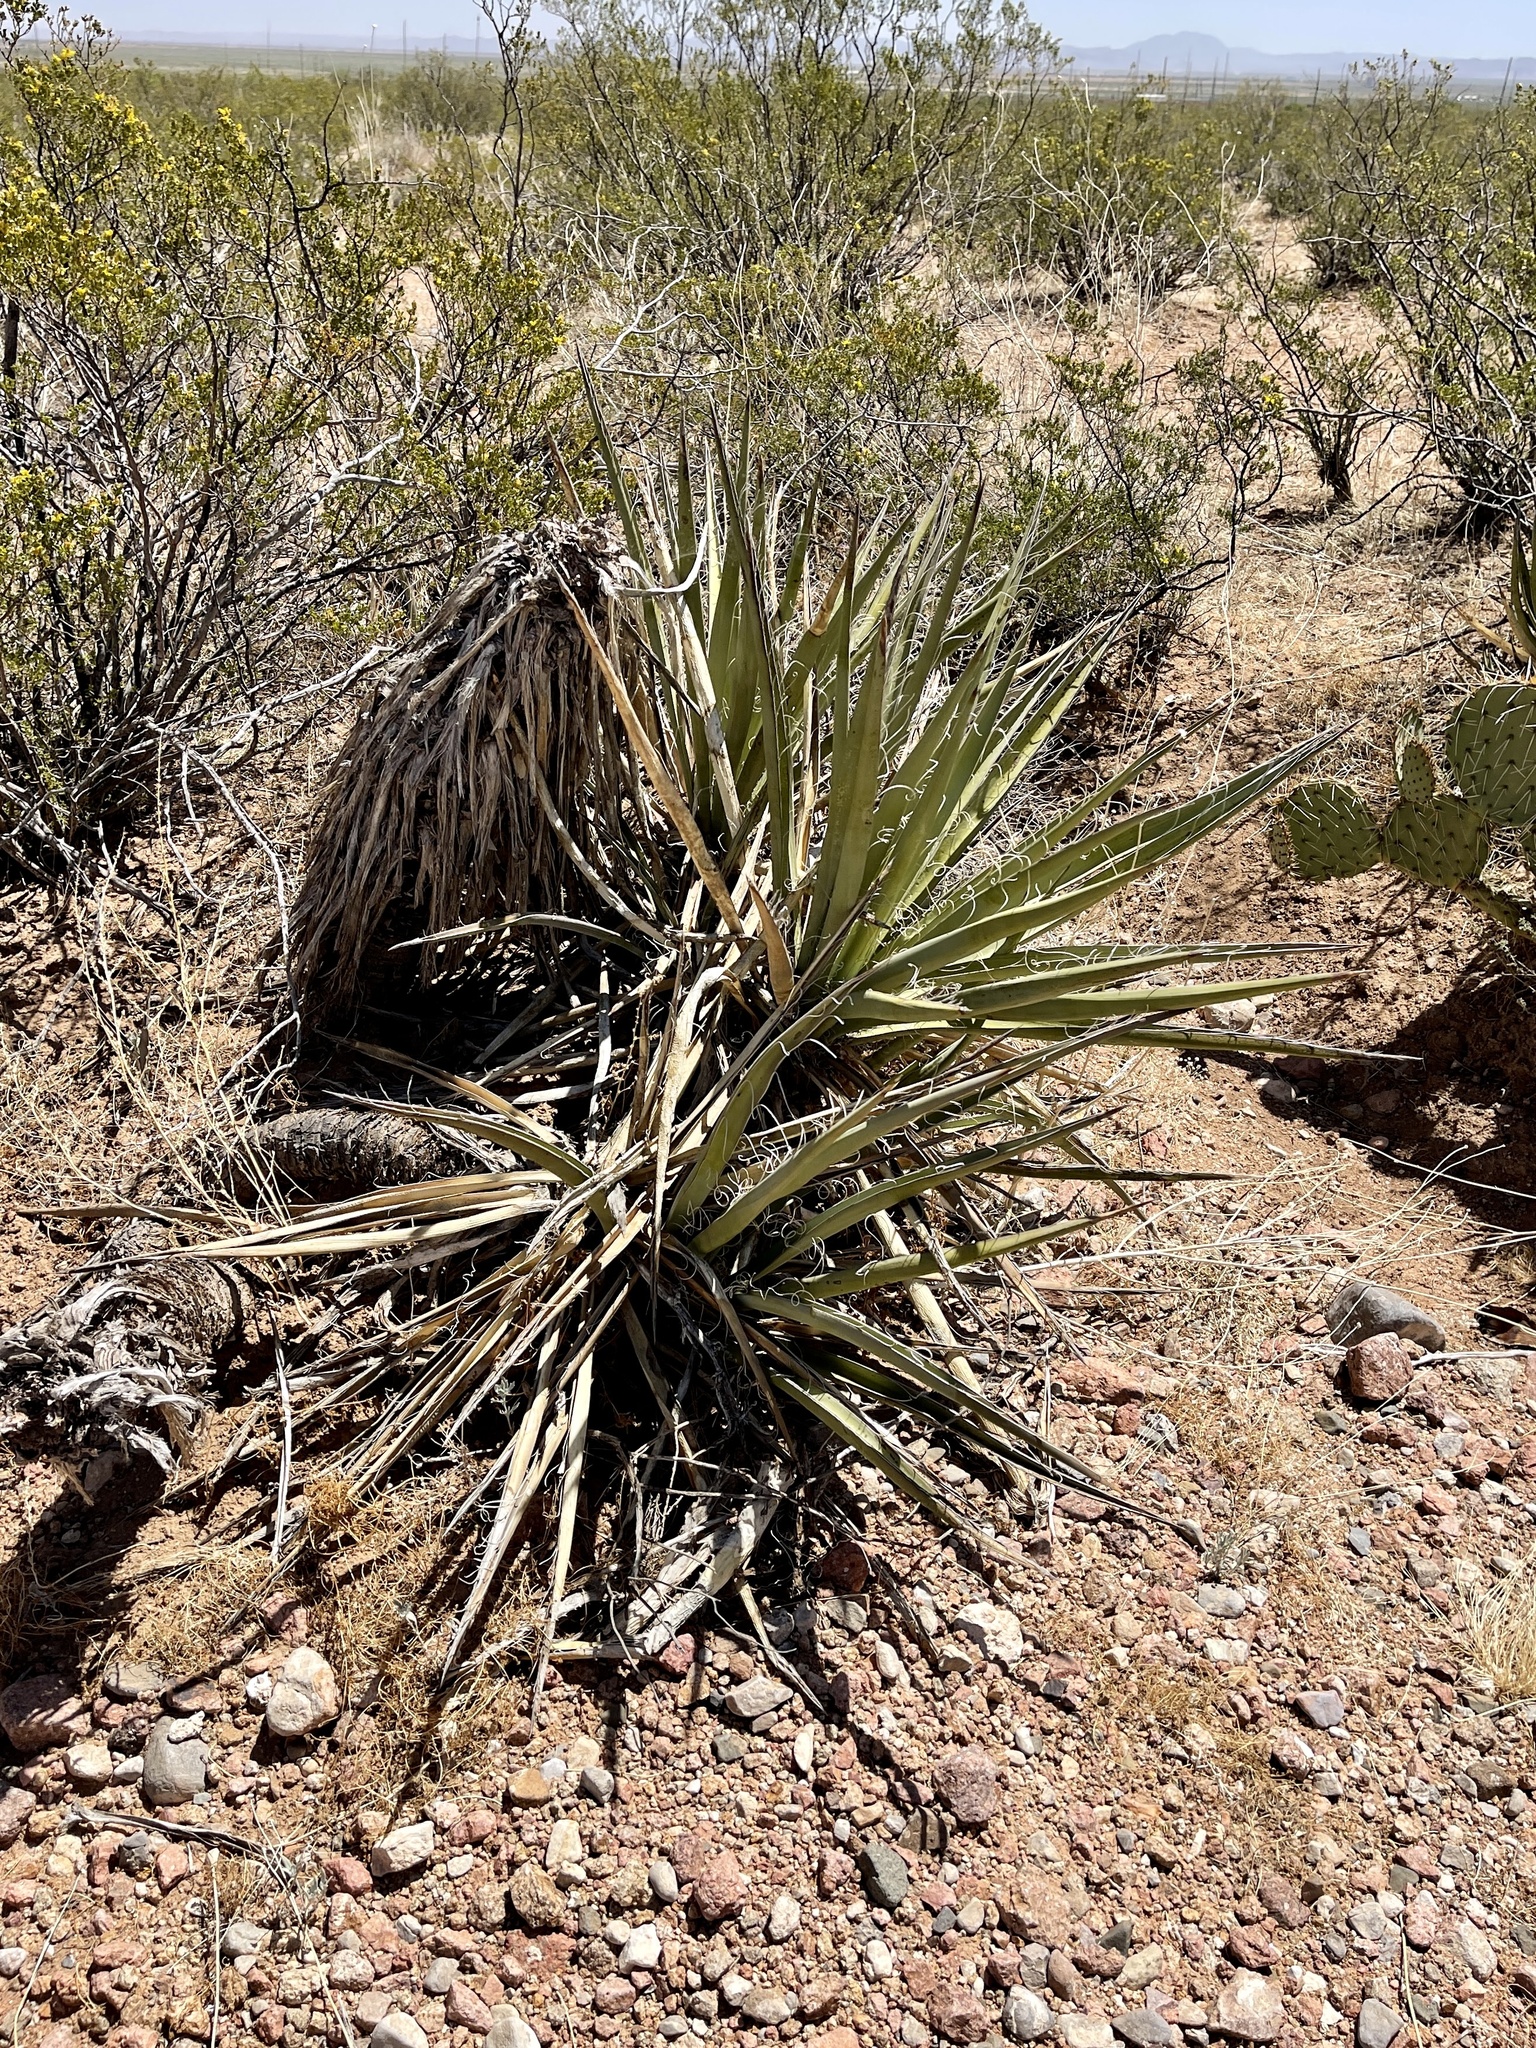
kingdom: Plantae
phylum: Tracheophyta
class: Liliopsida
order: Asparagales
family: Asparagaceae
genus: Yucca
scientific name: Yucca baccata
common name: Banana yucca
